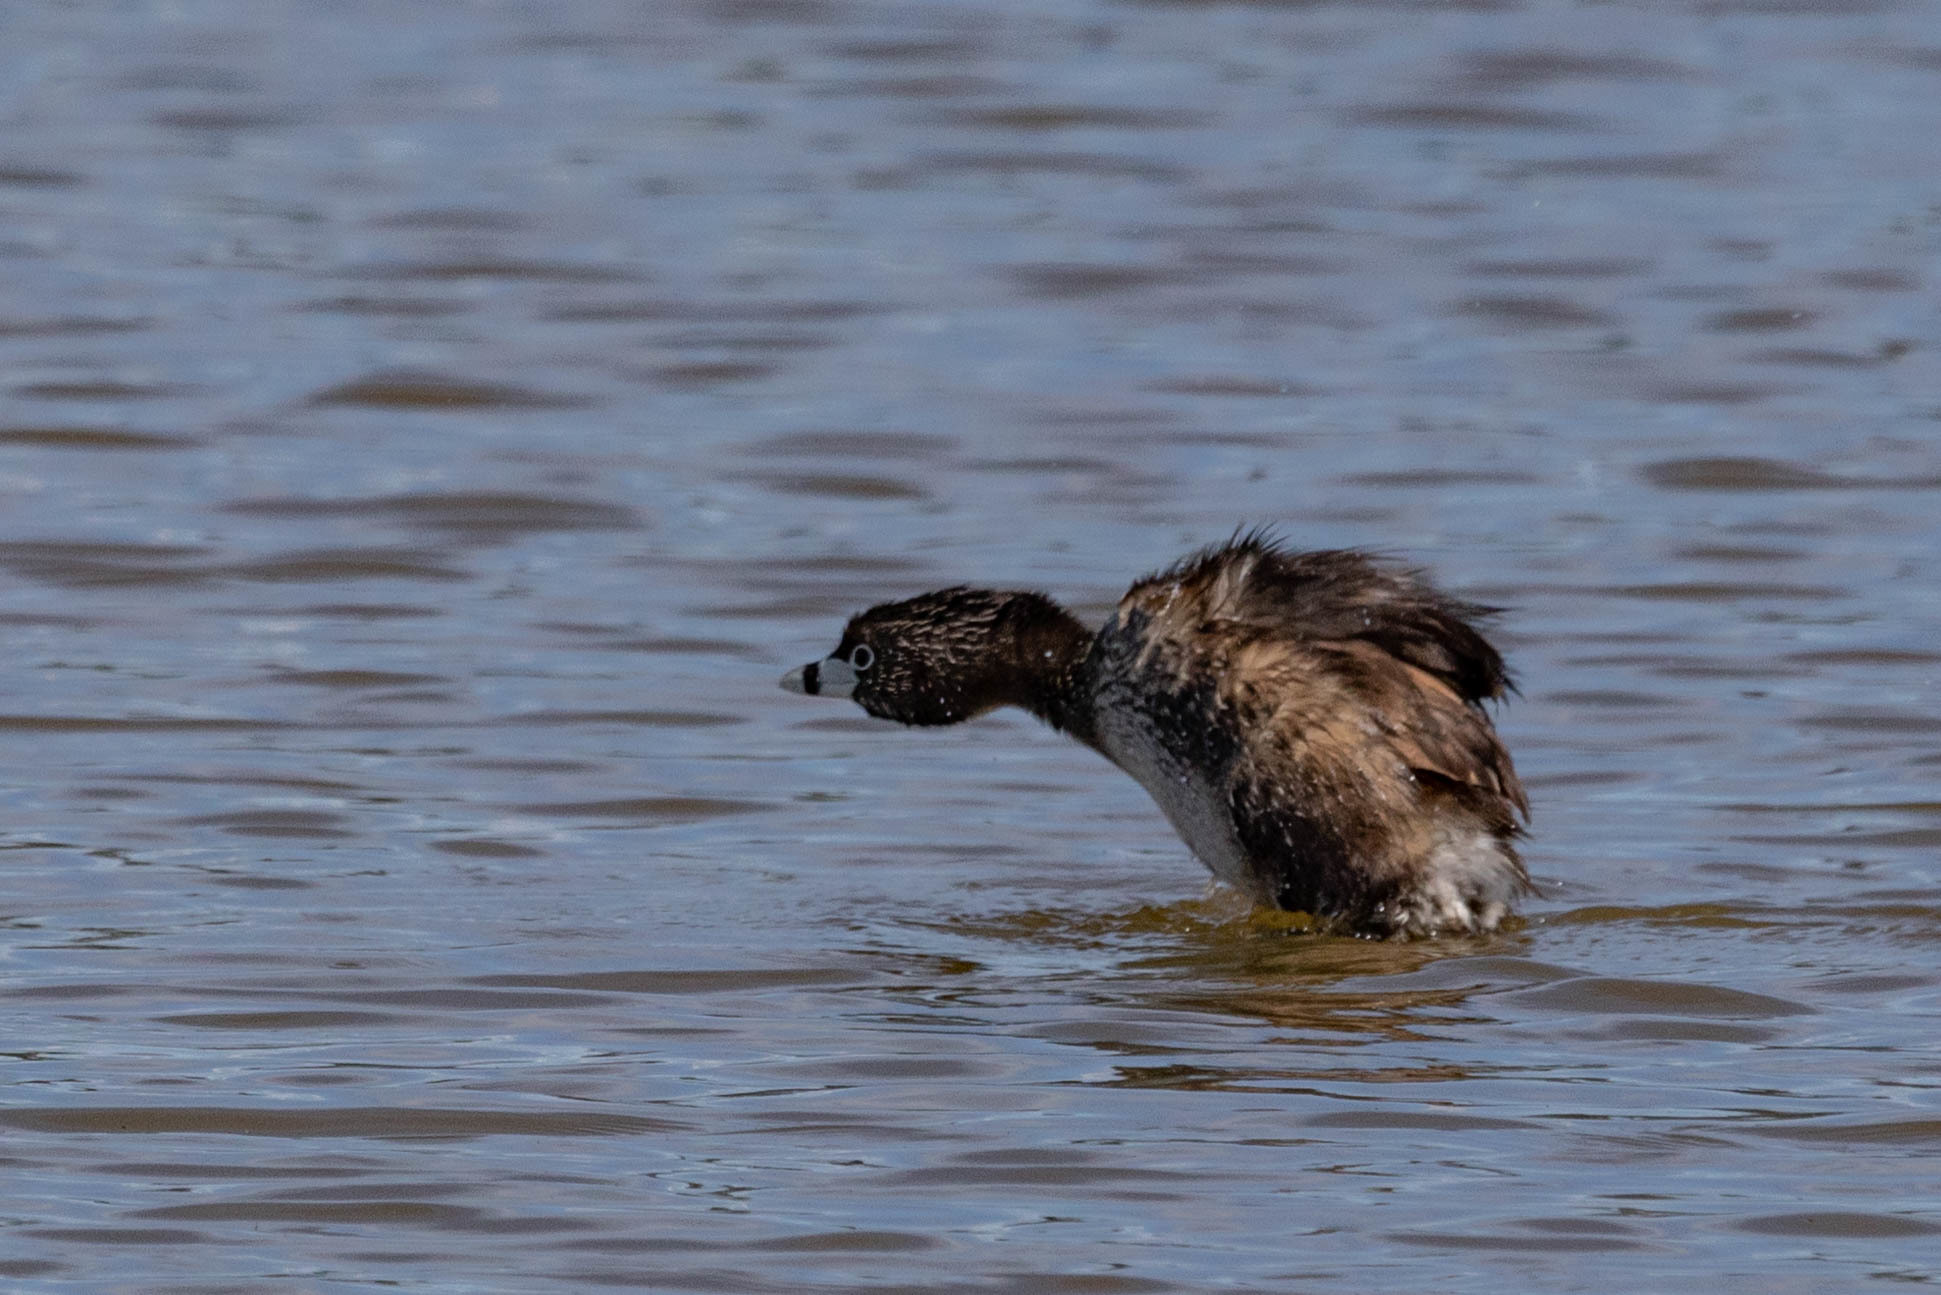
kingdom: Animalia
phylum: Chordata
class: Aves
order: Podicipediformes
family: Podicipedidae
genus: Podilymbus
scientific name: Podilymbus podiceps
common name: Pied-billed grebe
